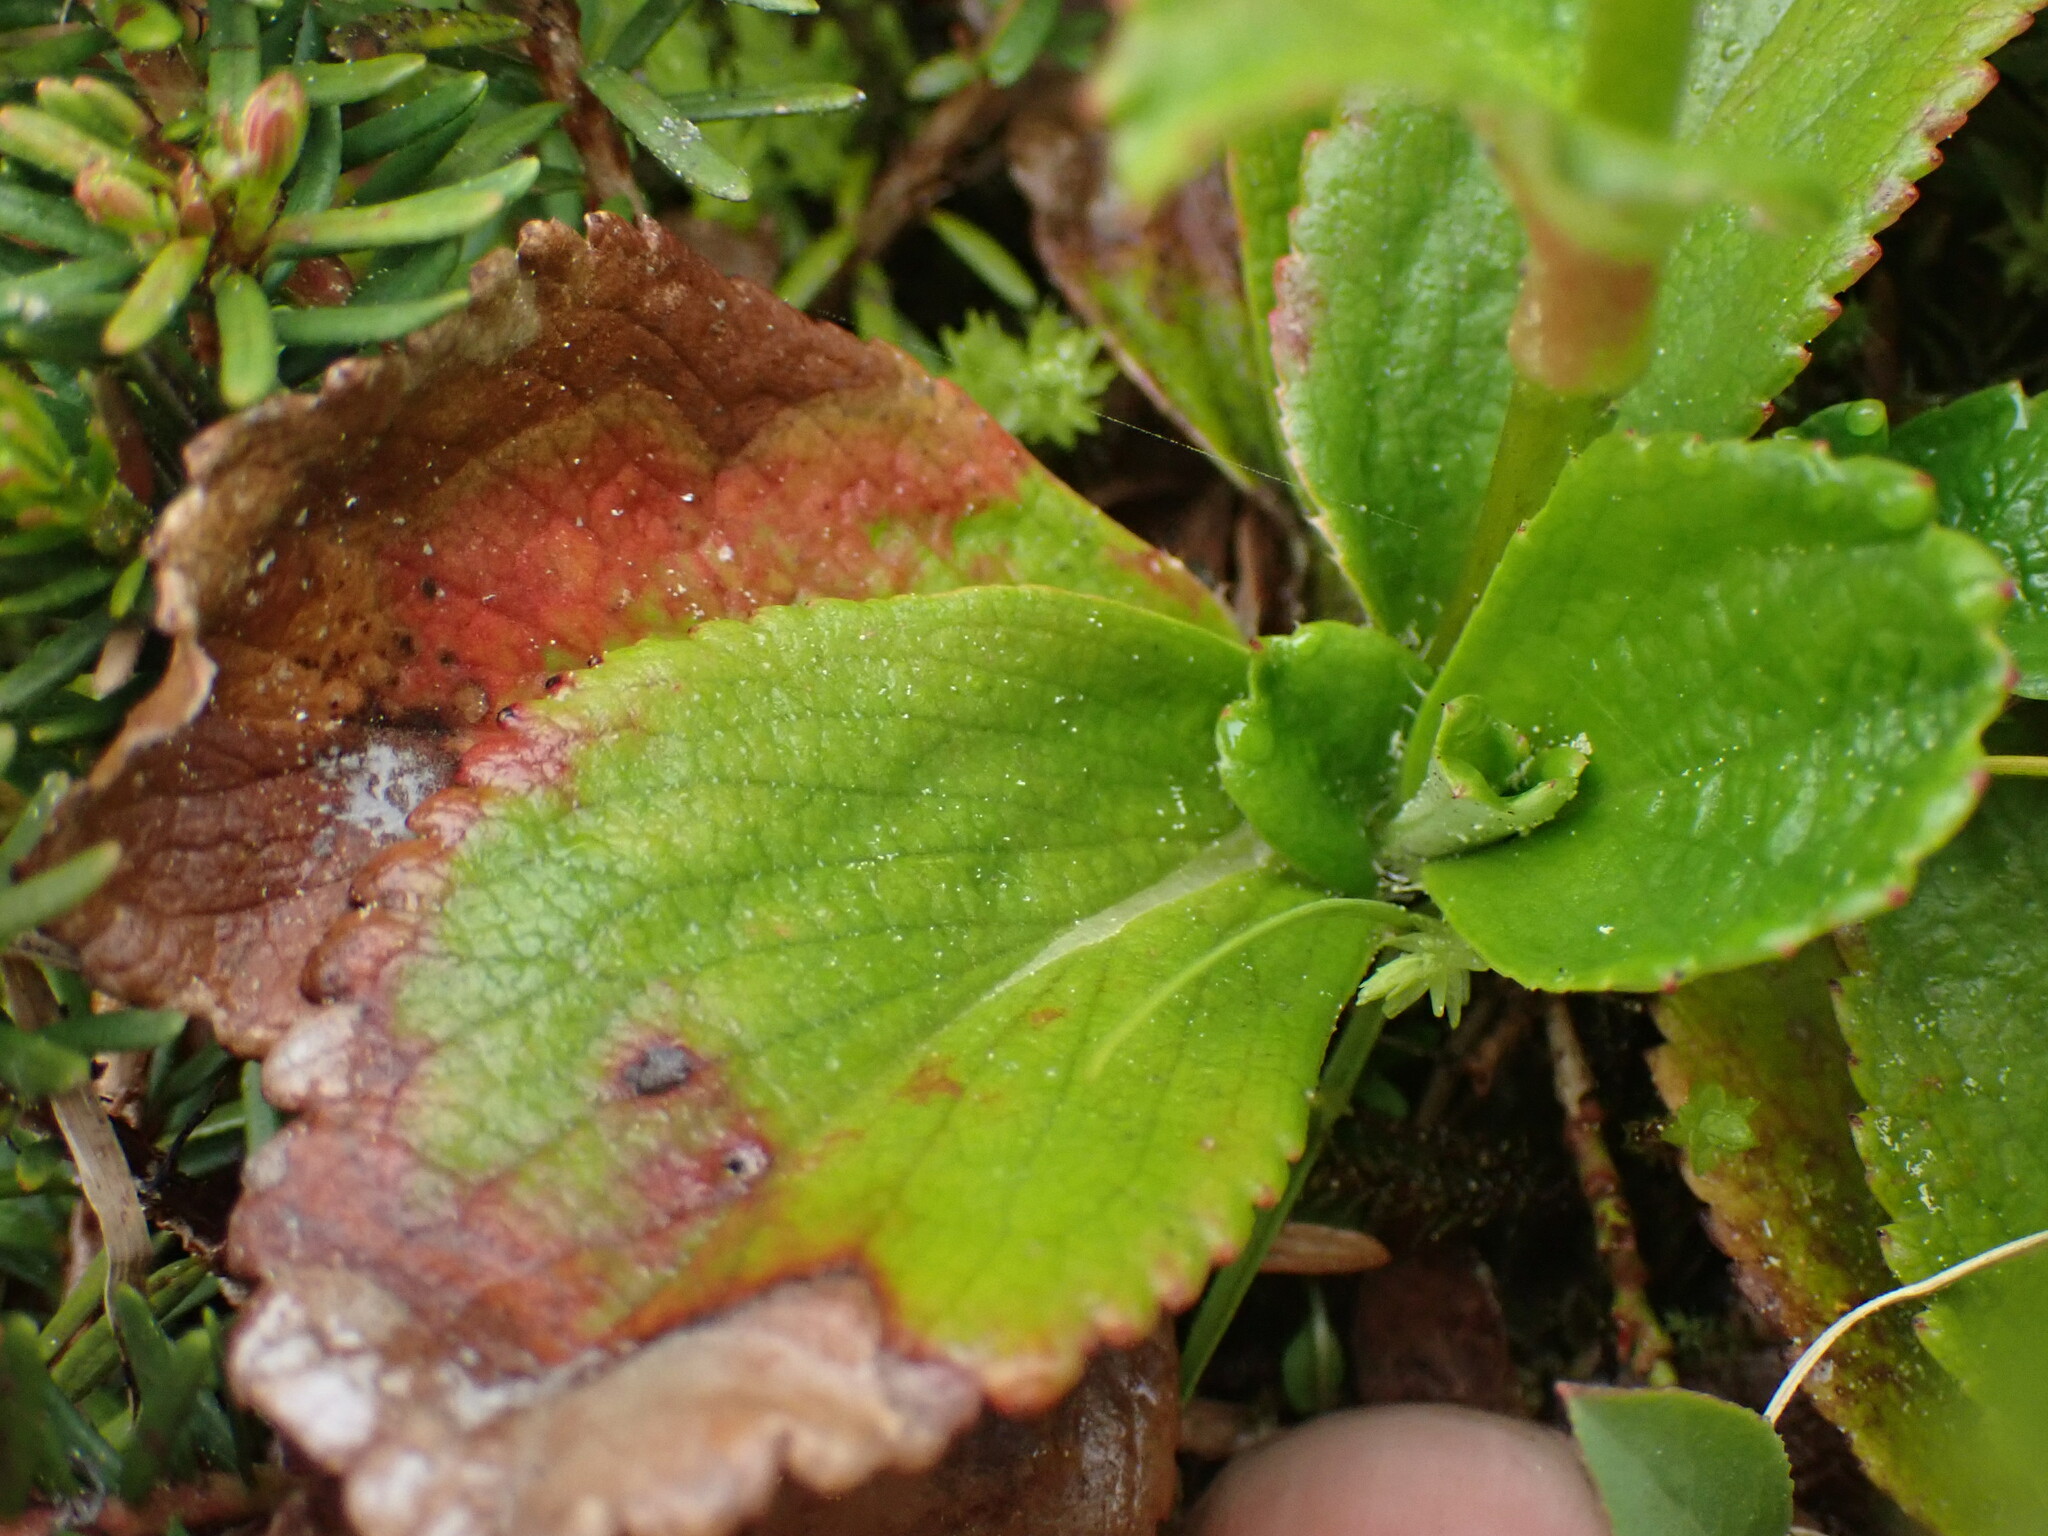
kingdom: Plantae
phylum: Tracheophyta
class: Magnoliopsida
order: Saxifragales
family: Saxifragaceae
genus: Leptarrhena
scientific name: Leptarrhena pyrolifolia
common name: Leatherleaf-saxifrage
